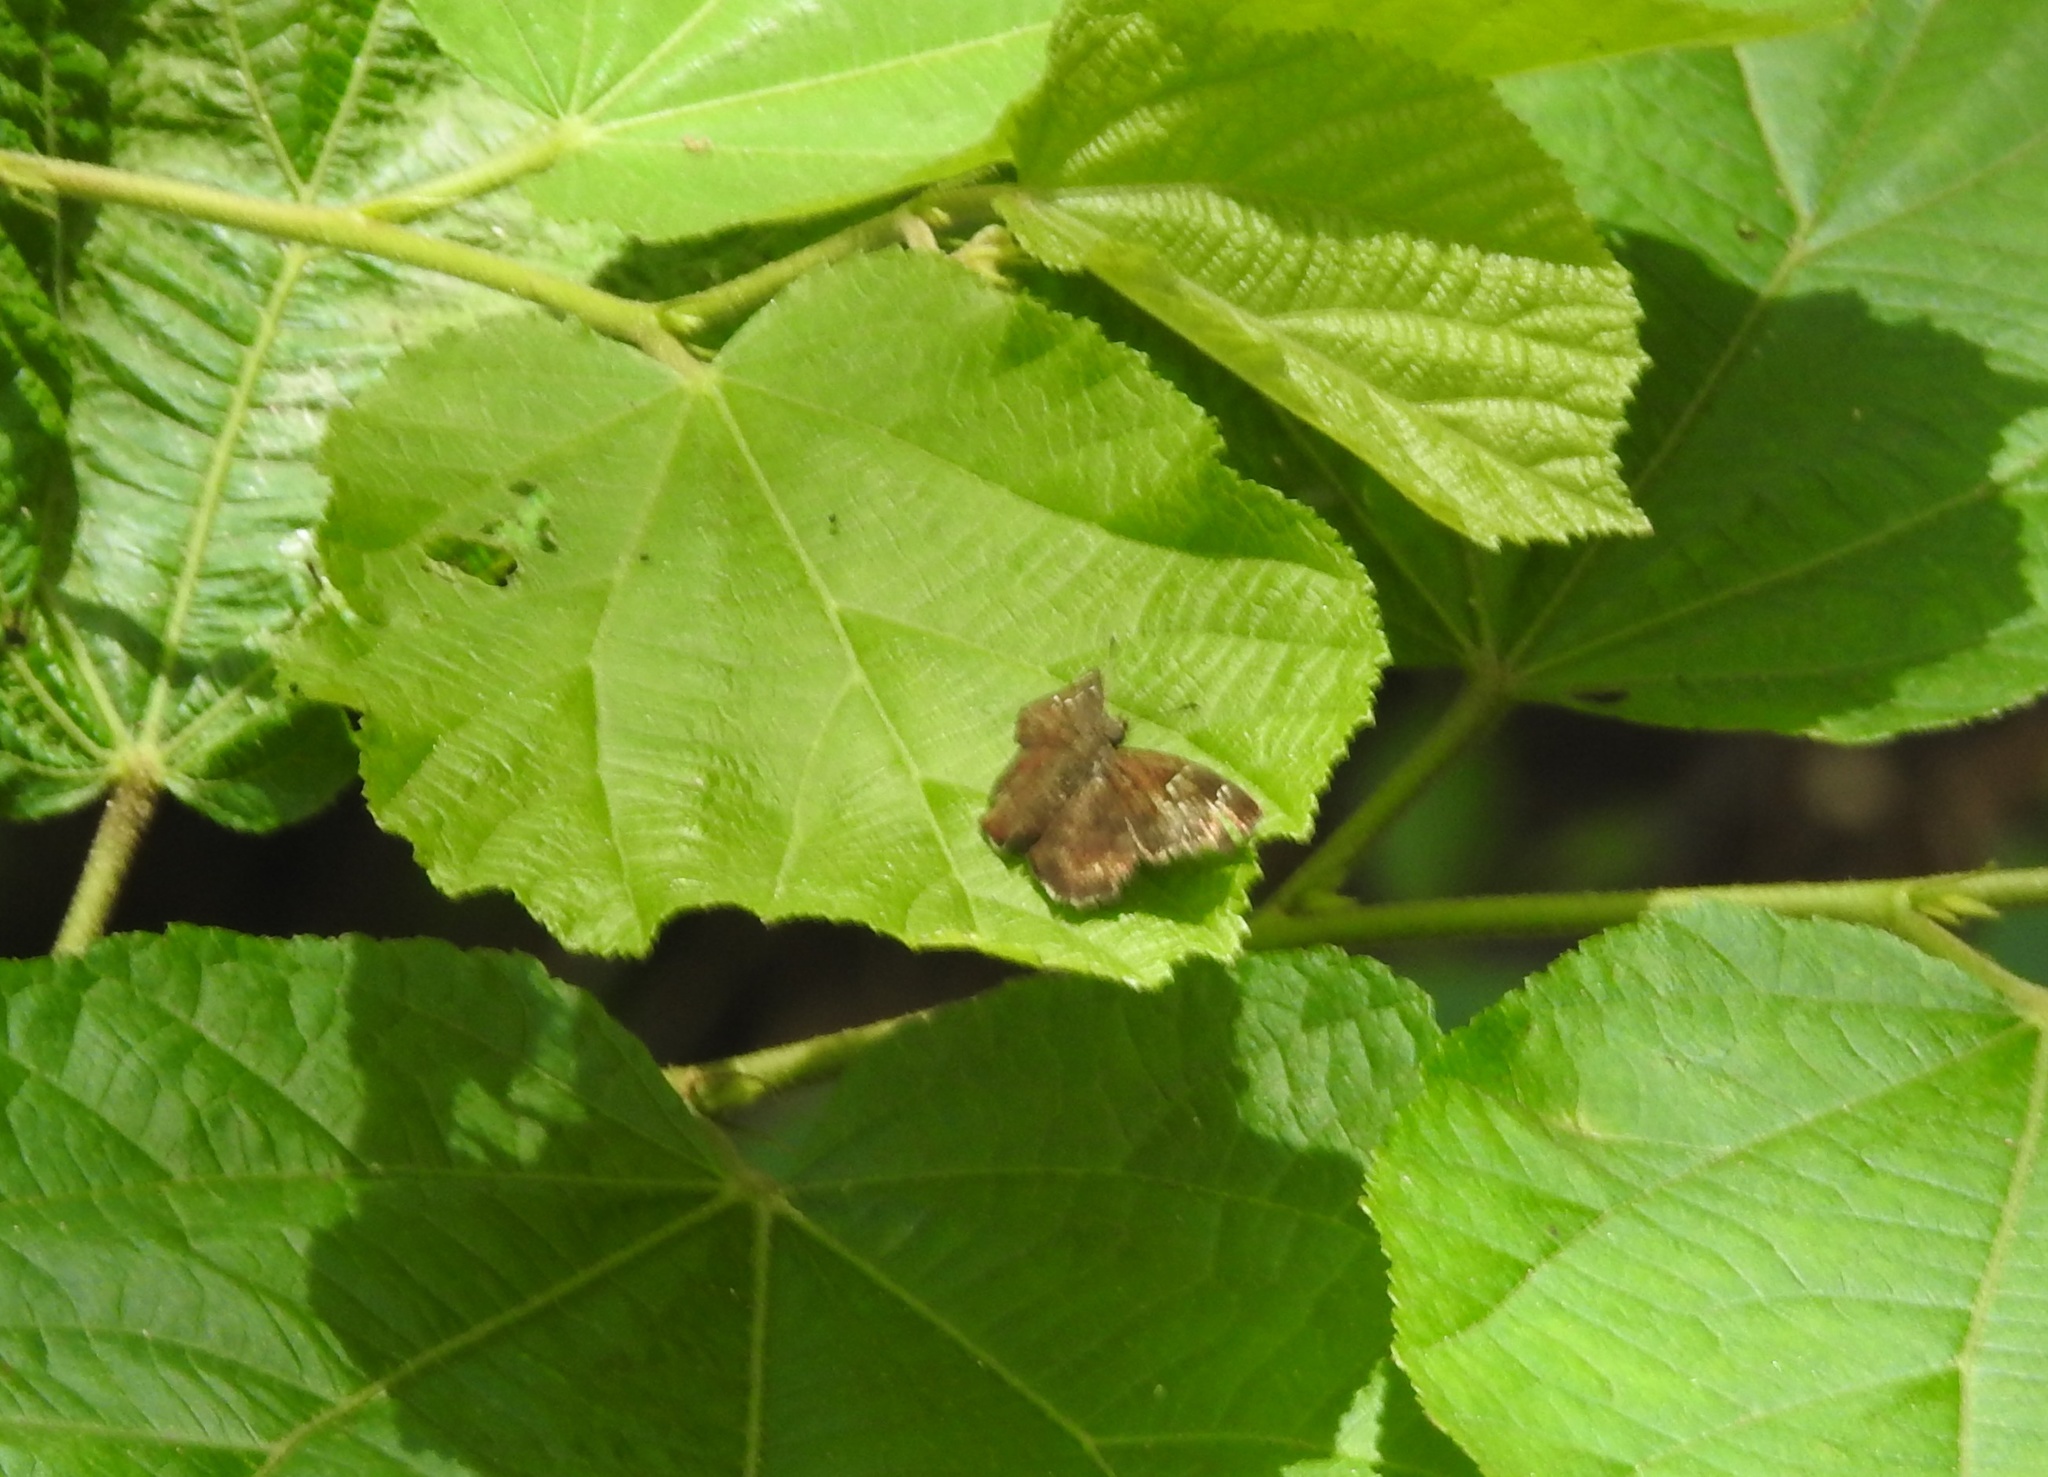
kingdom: Animalia
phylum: Arthropoda
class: Insecta
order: Lepidoptera
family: Hesperiidae
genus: Sarangesa
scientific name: Sarangesa dasahara
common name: Common small flat
